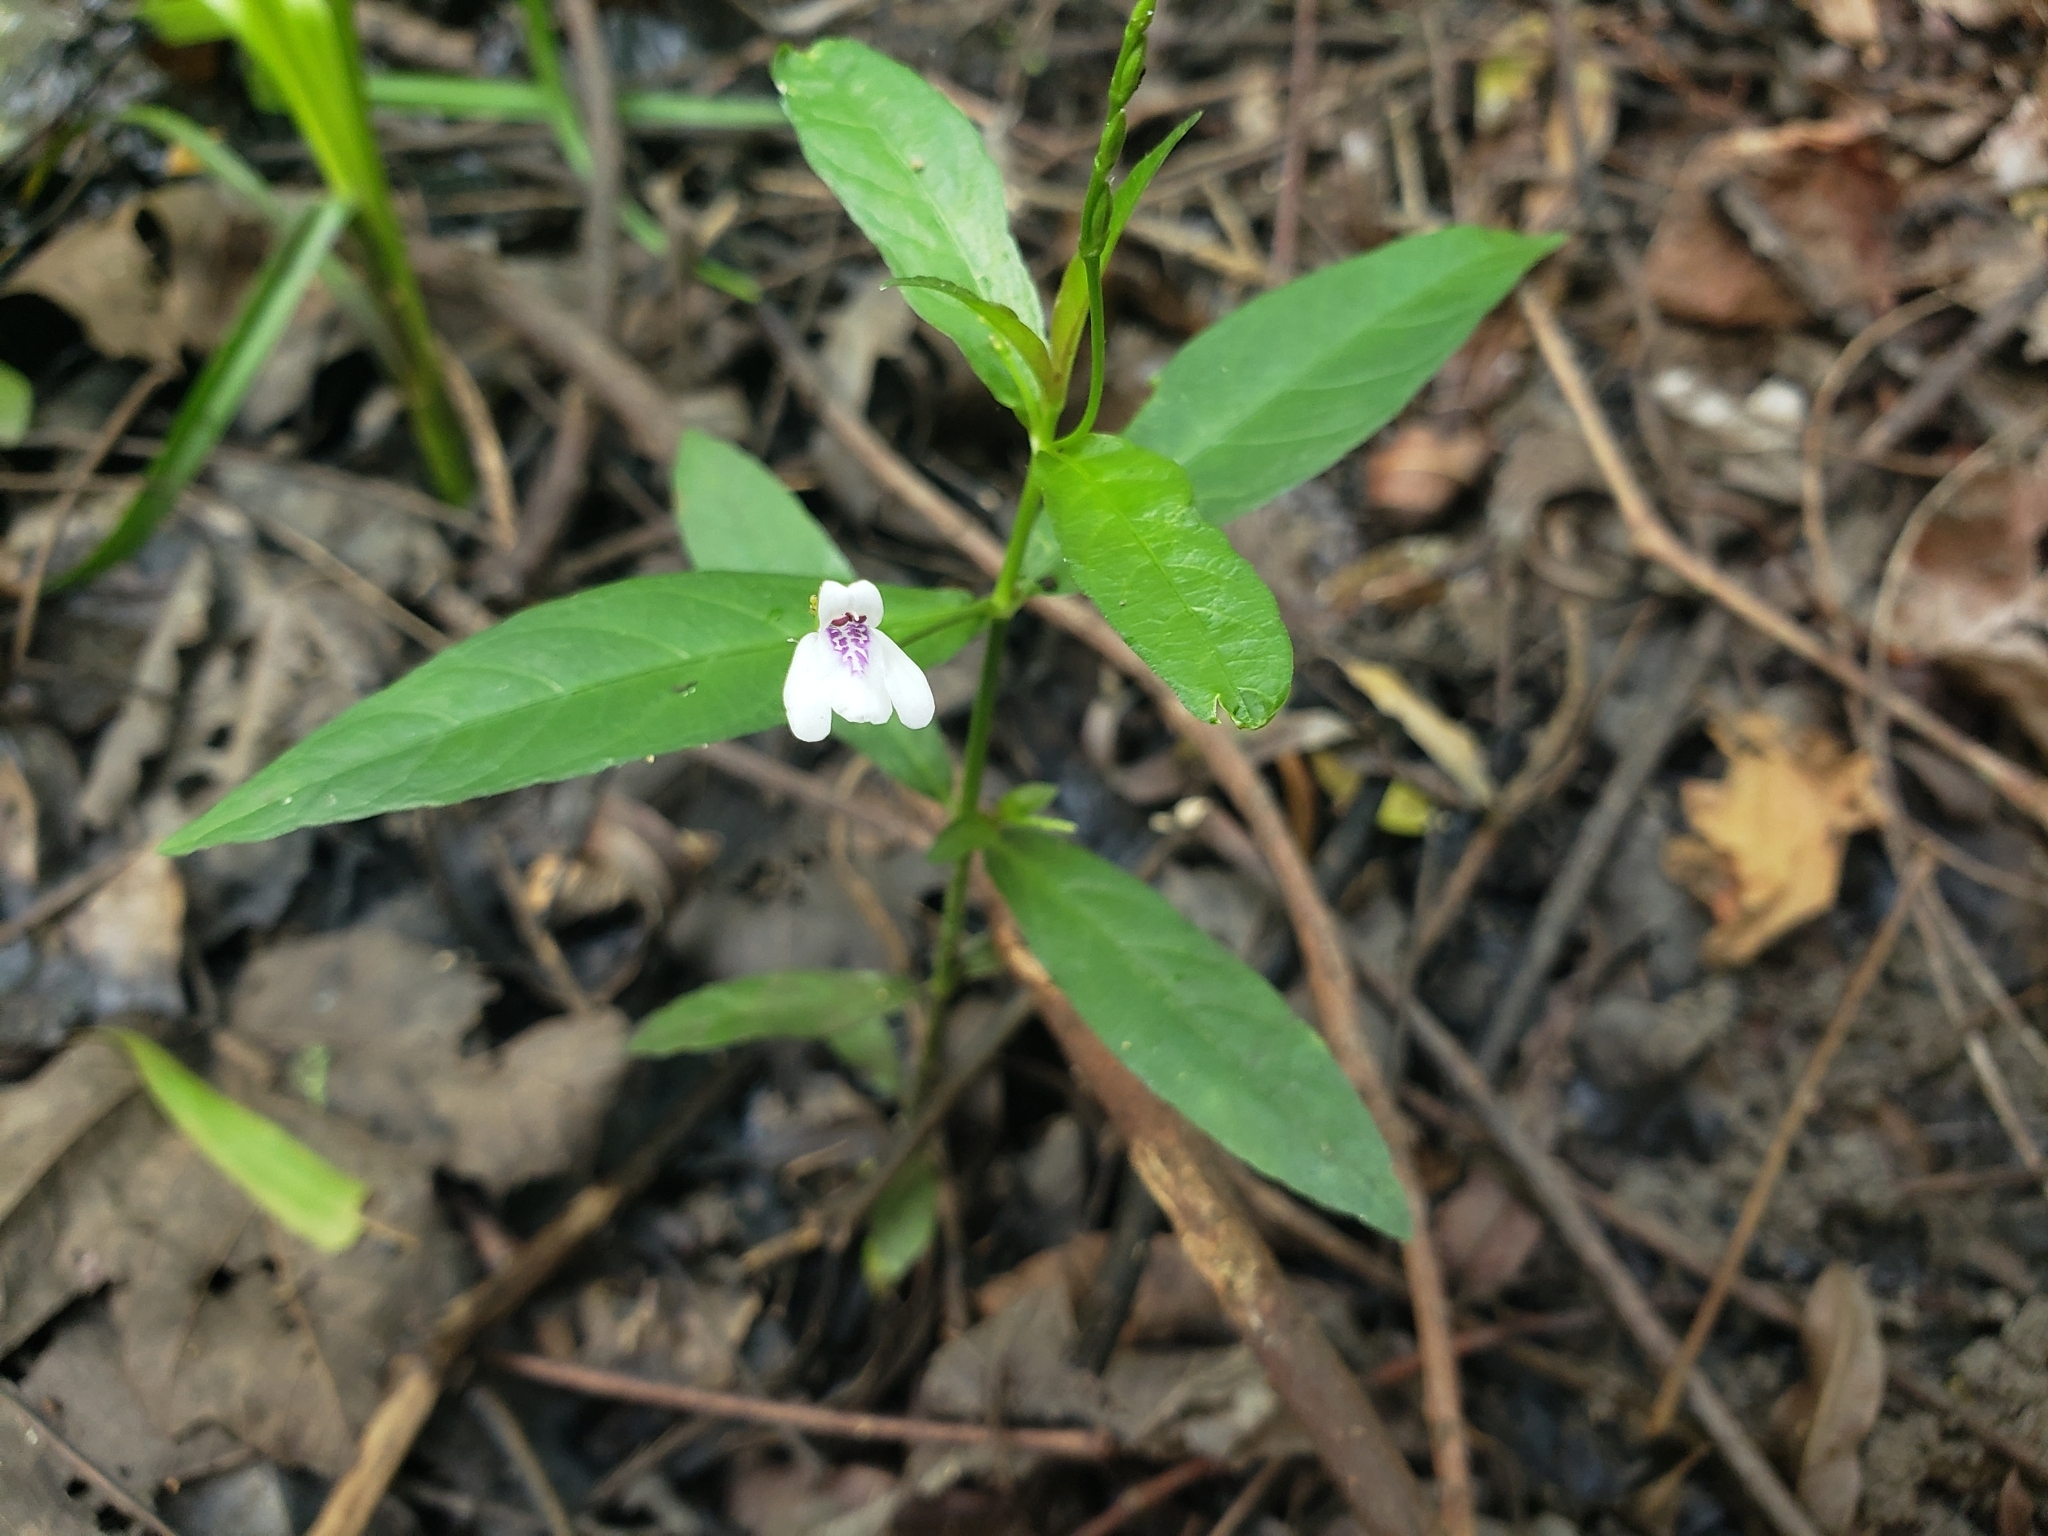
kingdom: Plantae
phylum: Tracheophyta
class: Magnoliopsida
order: Lamiales
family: Acanthaceae
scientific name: Acanthaceae
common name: Acanthaceae
